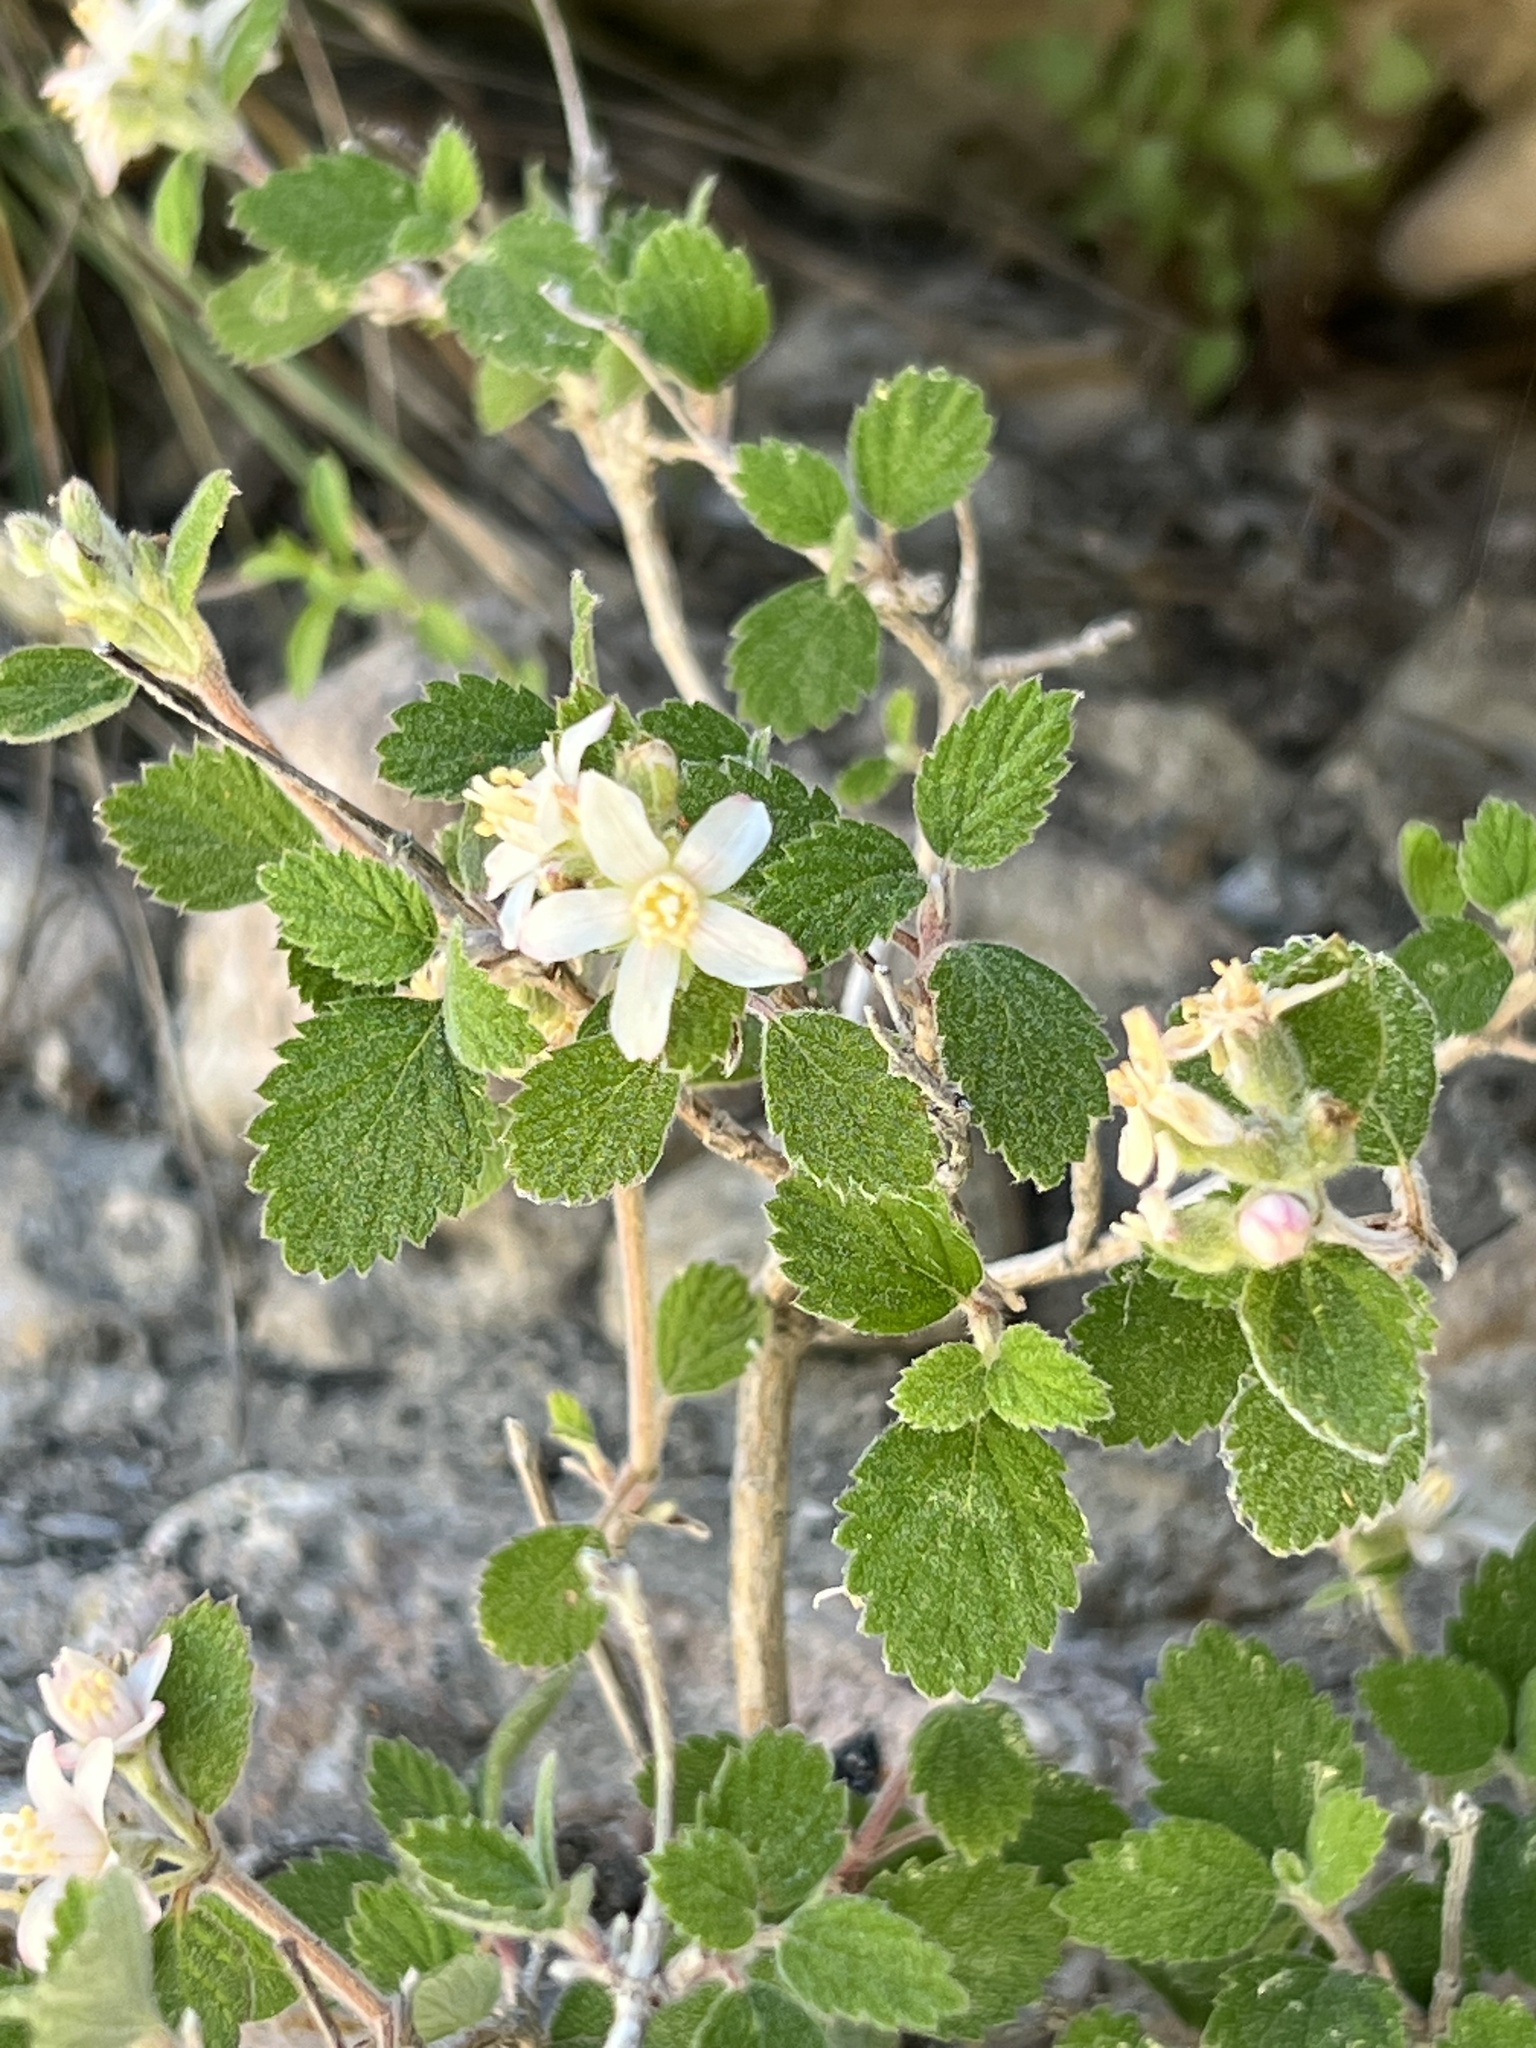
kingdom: Plantae
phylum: Tracheophyta
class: Magnoliopsida
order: Cornales
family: Hydrangeaceae
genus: Jamesia
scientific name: Jamesia americana
